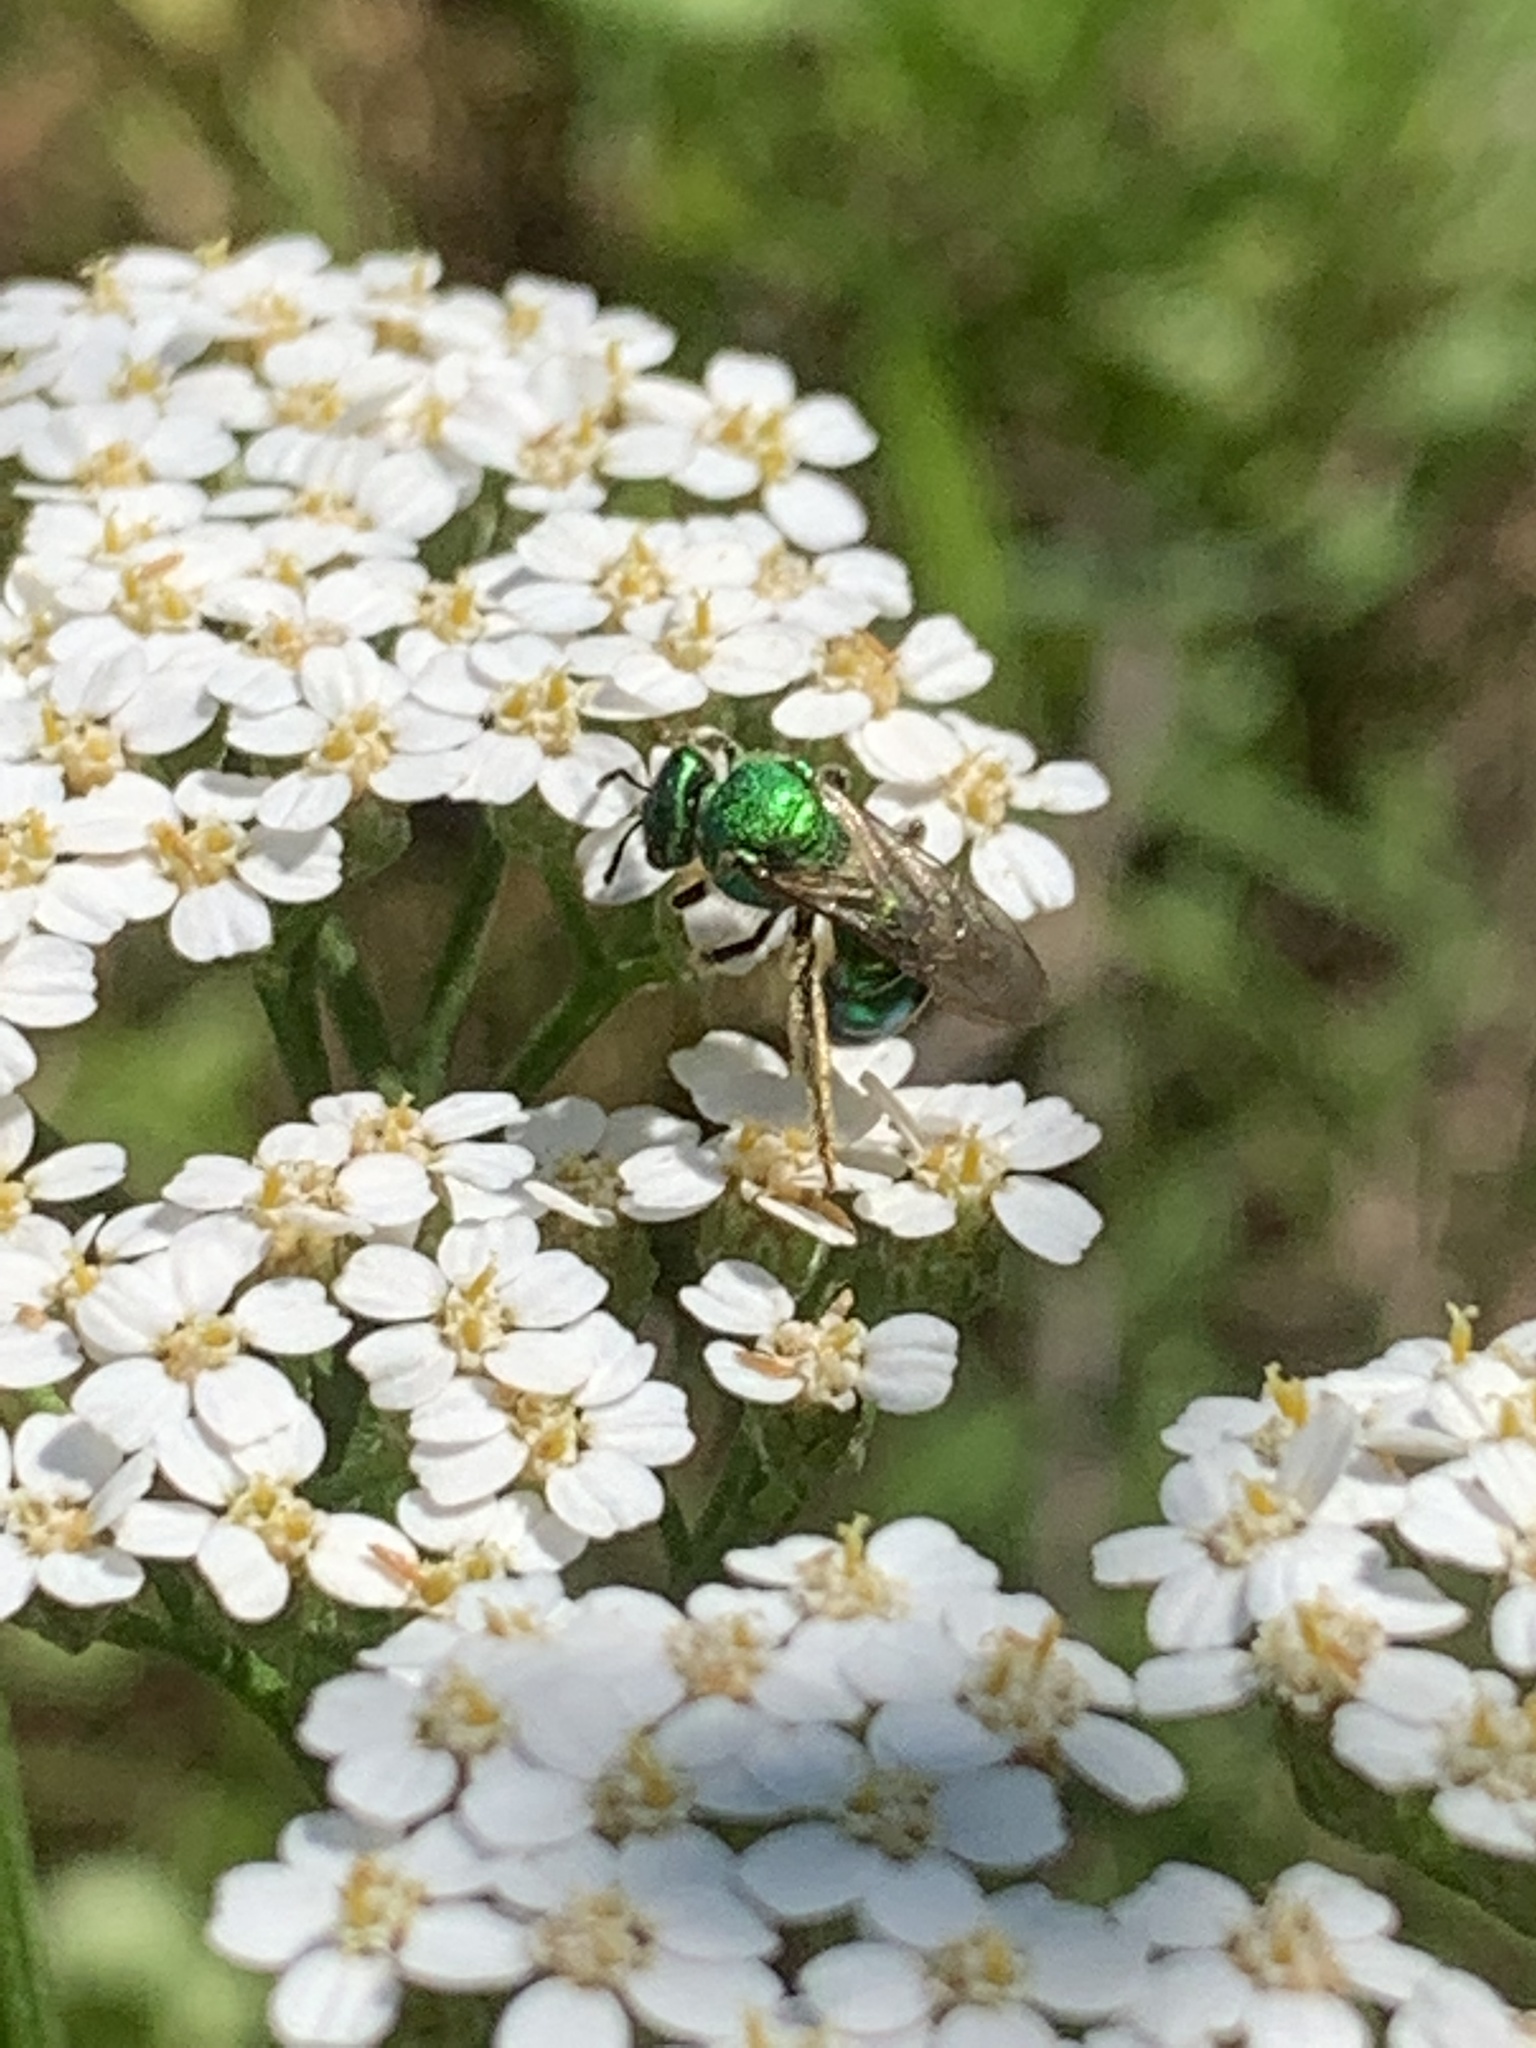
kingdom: Animalia
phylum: Arthropoda
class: Insecta
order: Hymenoptera
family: Halictidae
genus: Augochloropsis
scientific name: Augochloropsis viridula
